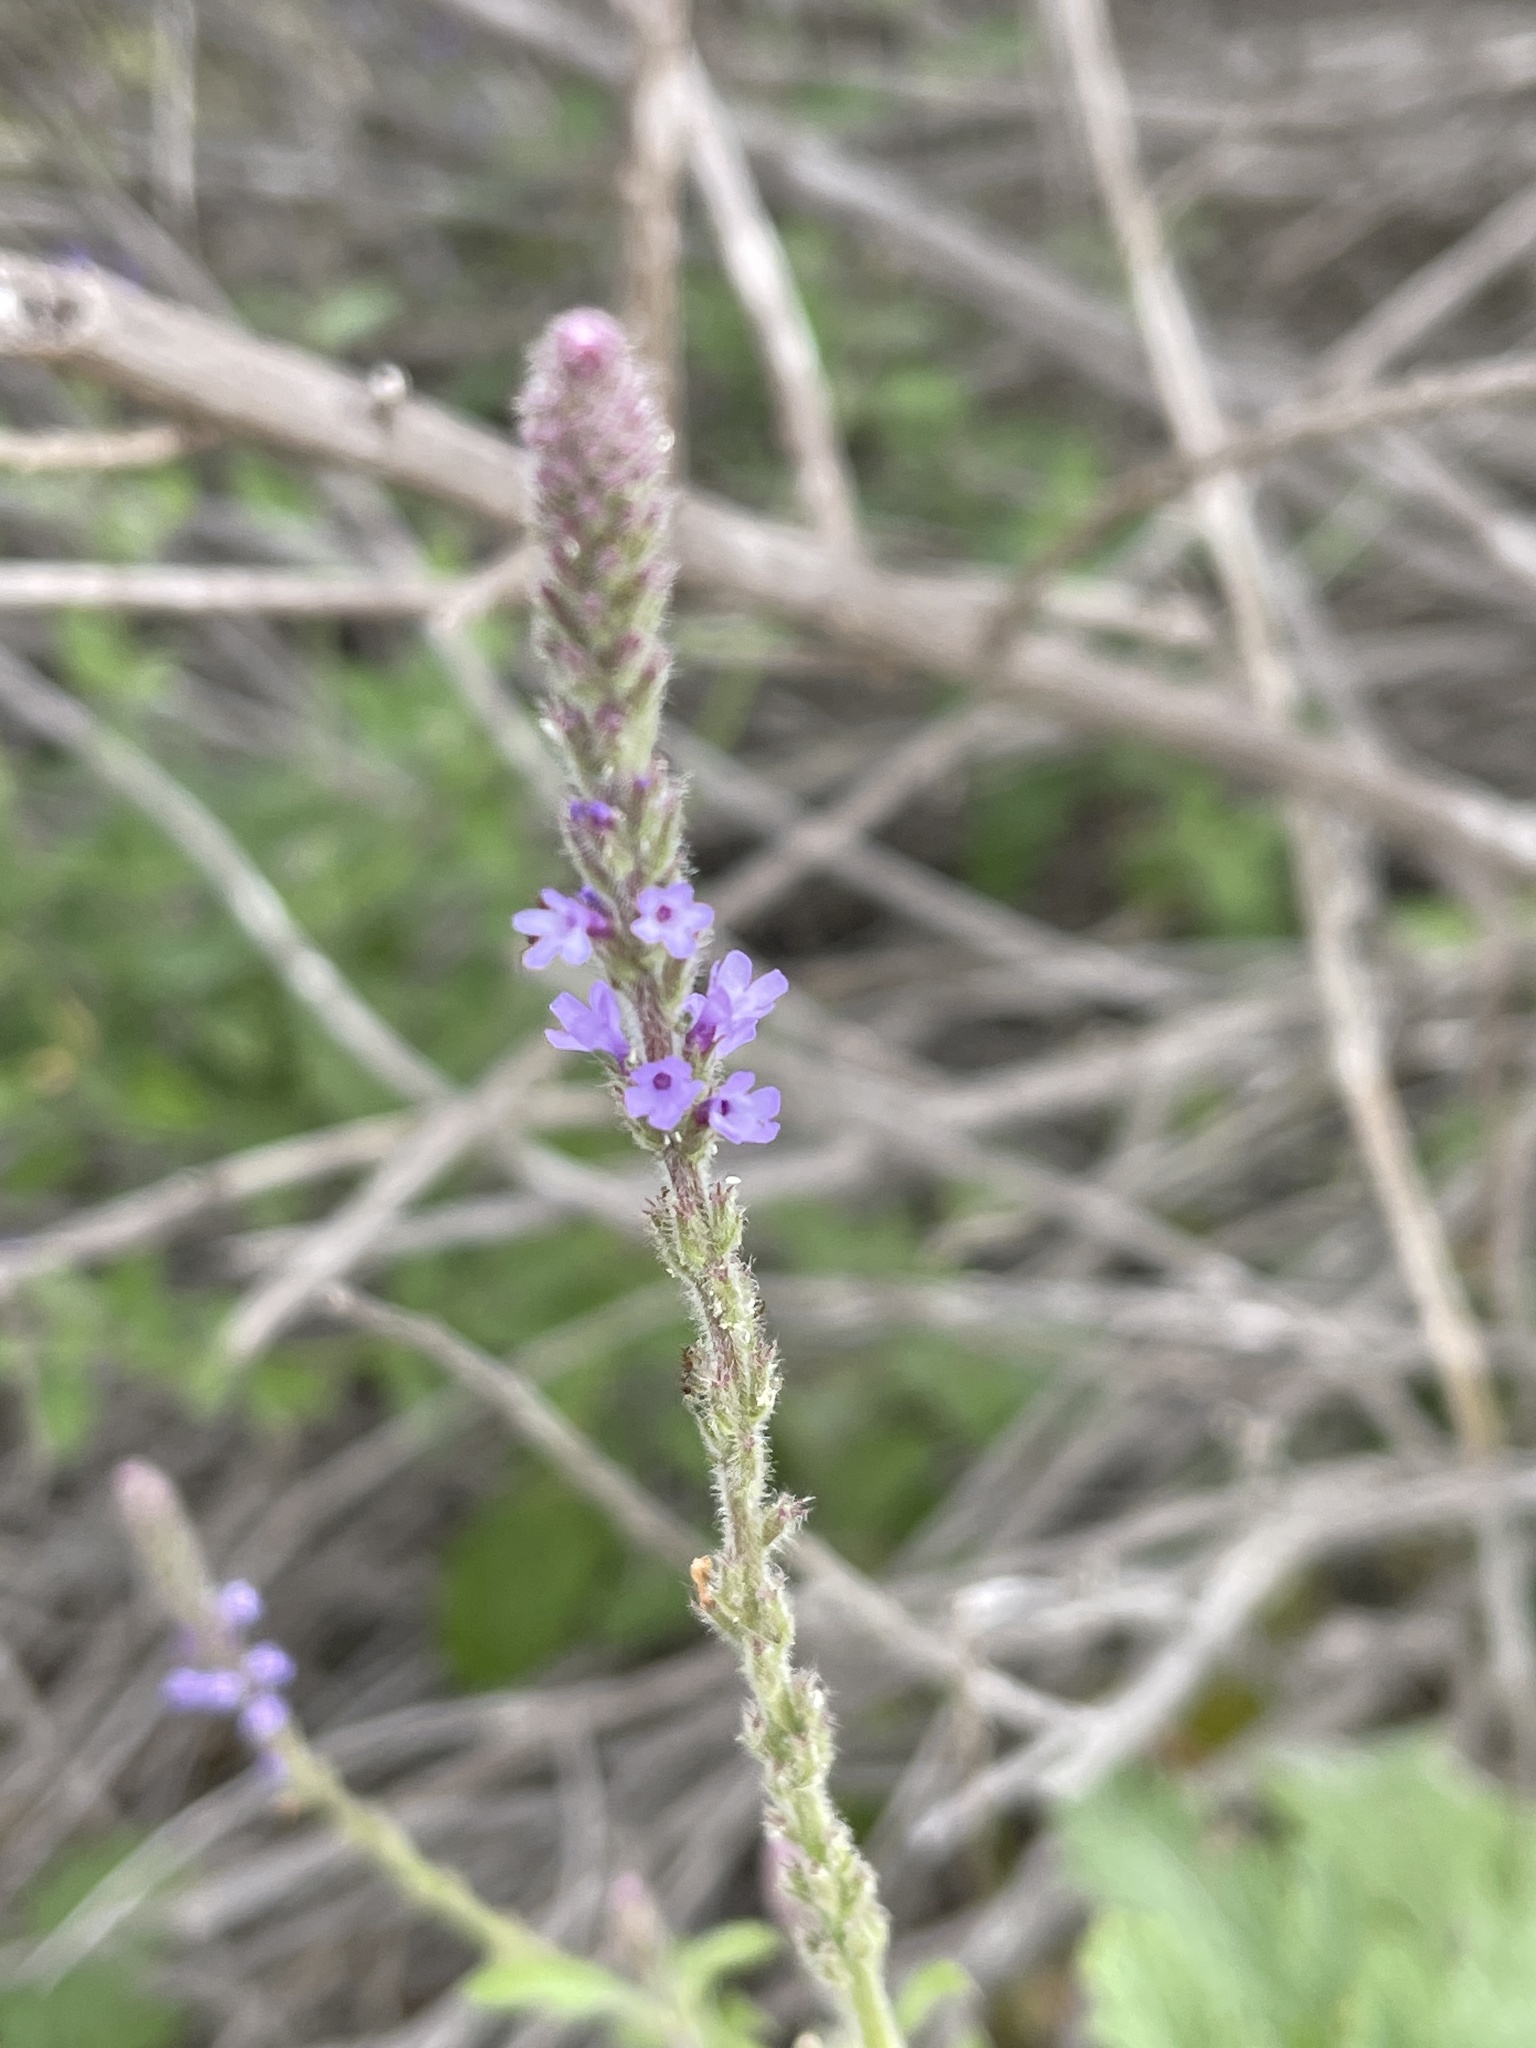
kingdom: Plantae
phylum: Tracheophyta
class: Magnoliopsida
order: Lamiales
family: Verbenaceae
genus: Verbena
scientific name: Verbena lasiostachys
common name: Vervain
